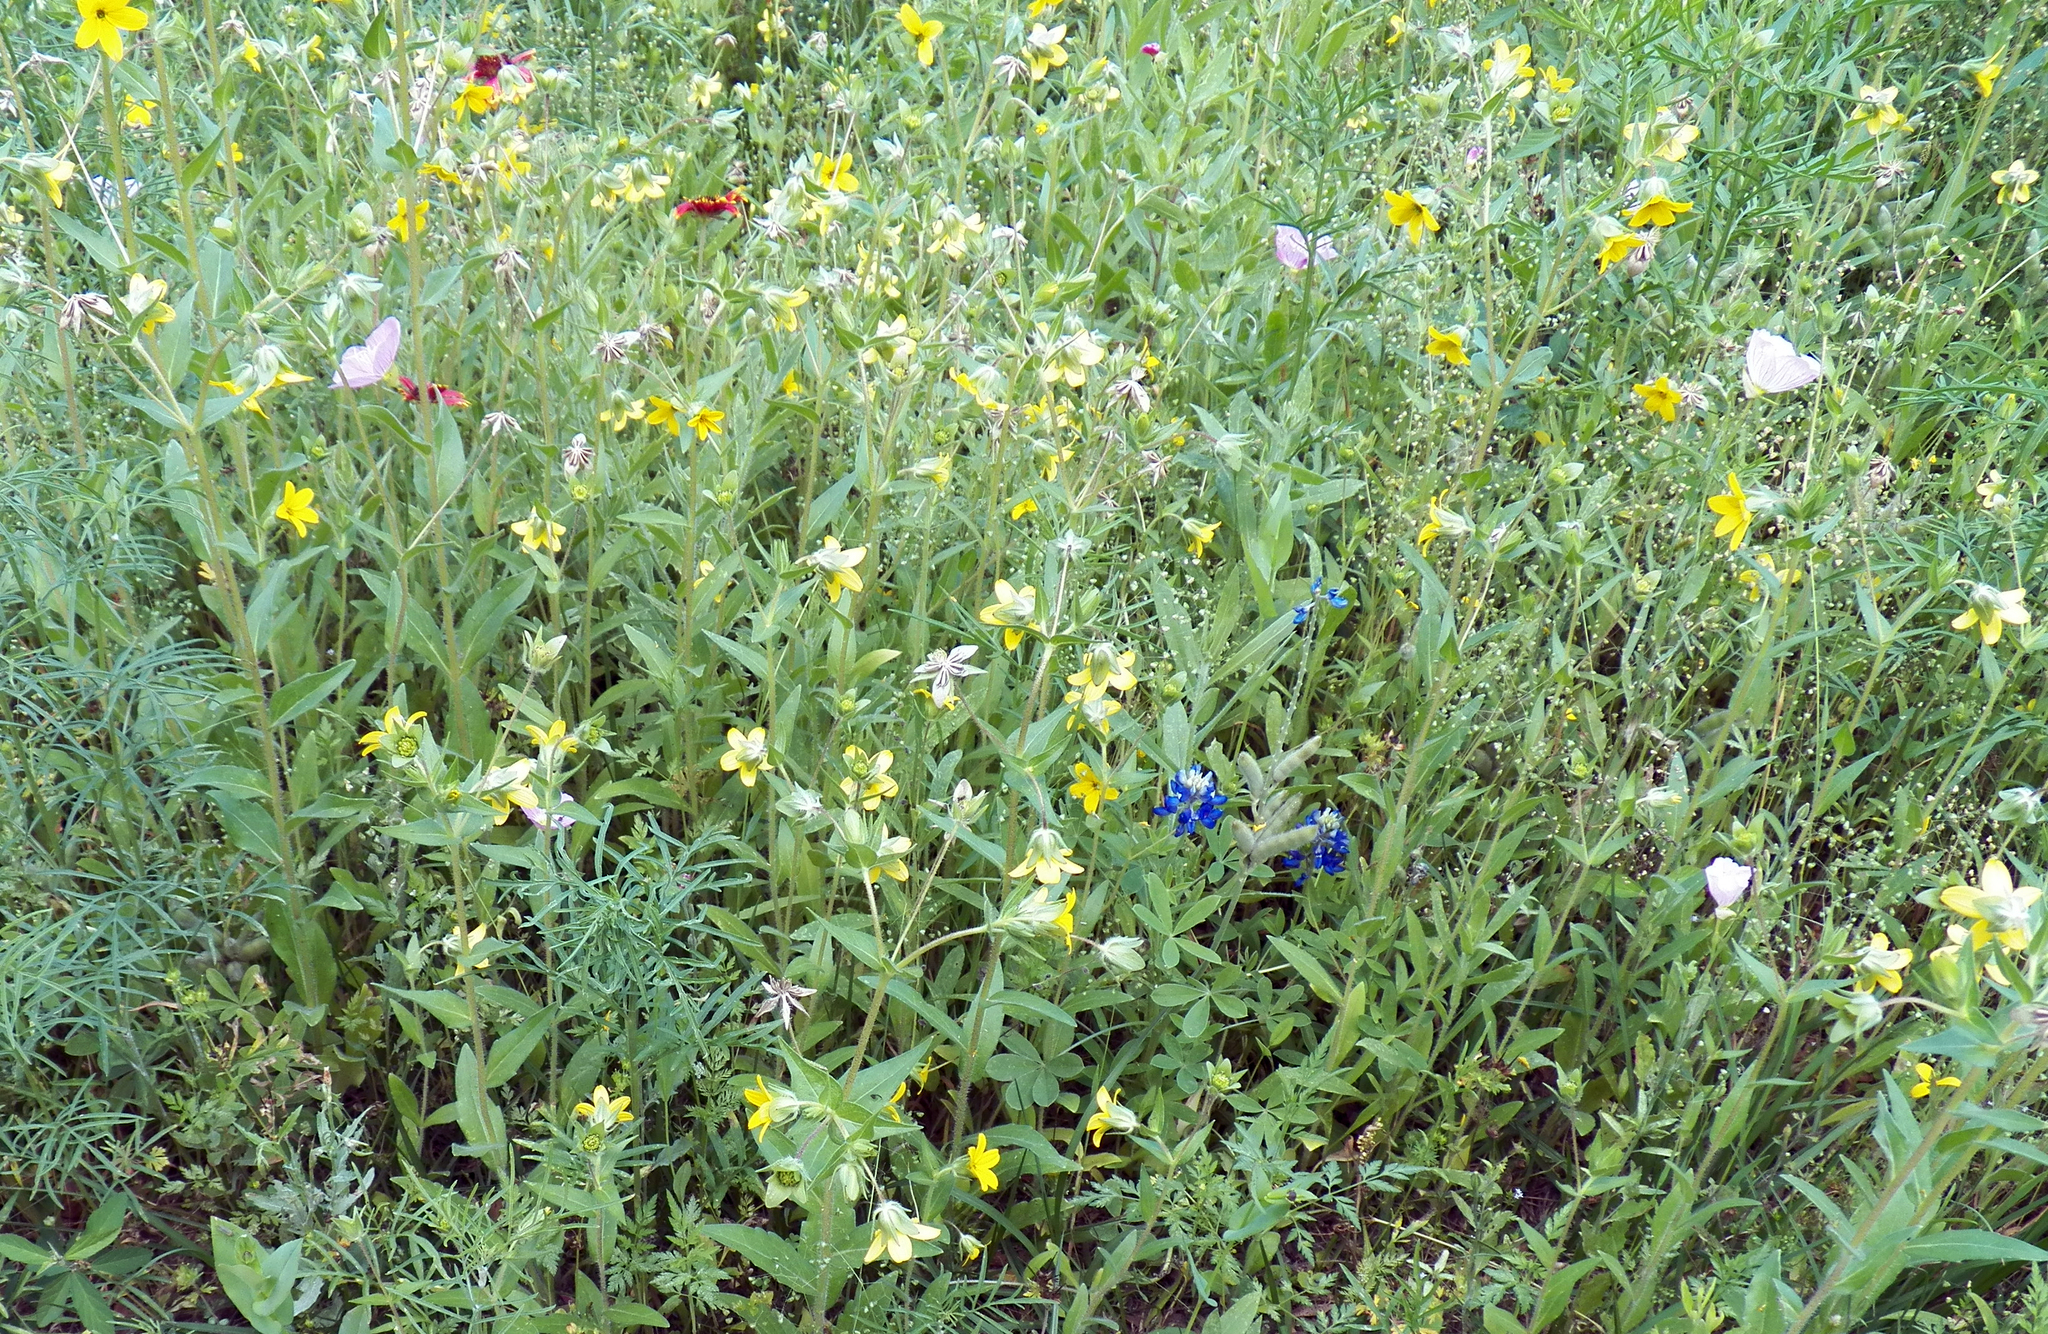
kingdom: Plantae
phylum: Tracheophyta
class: Magnoliopsida
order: Asterales
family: Asteraceae
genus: Lindheimera
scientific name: Lindheimera texana
